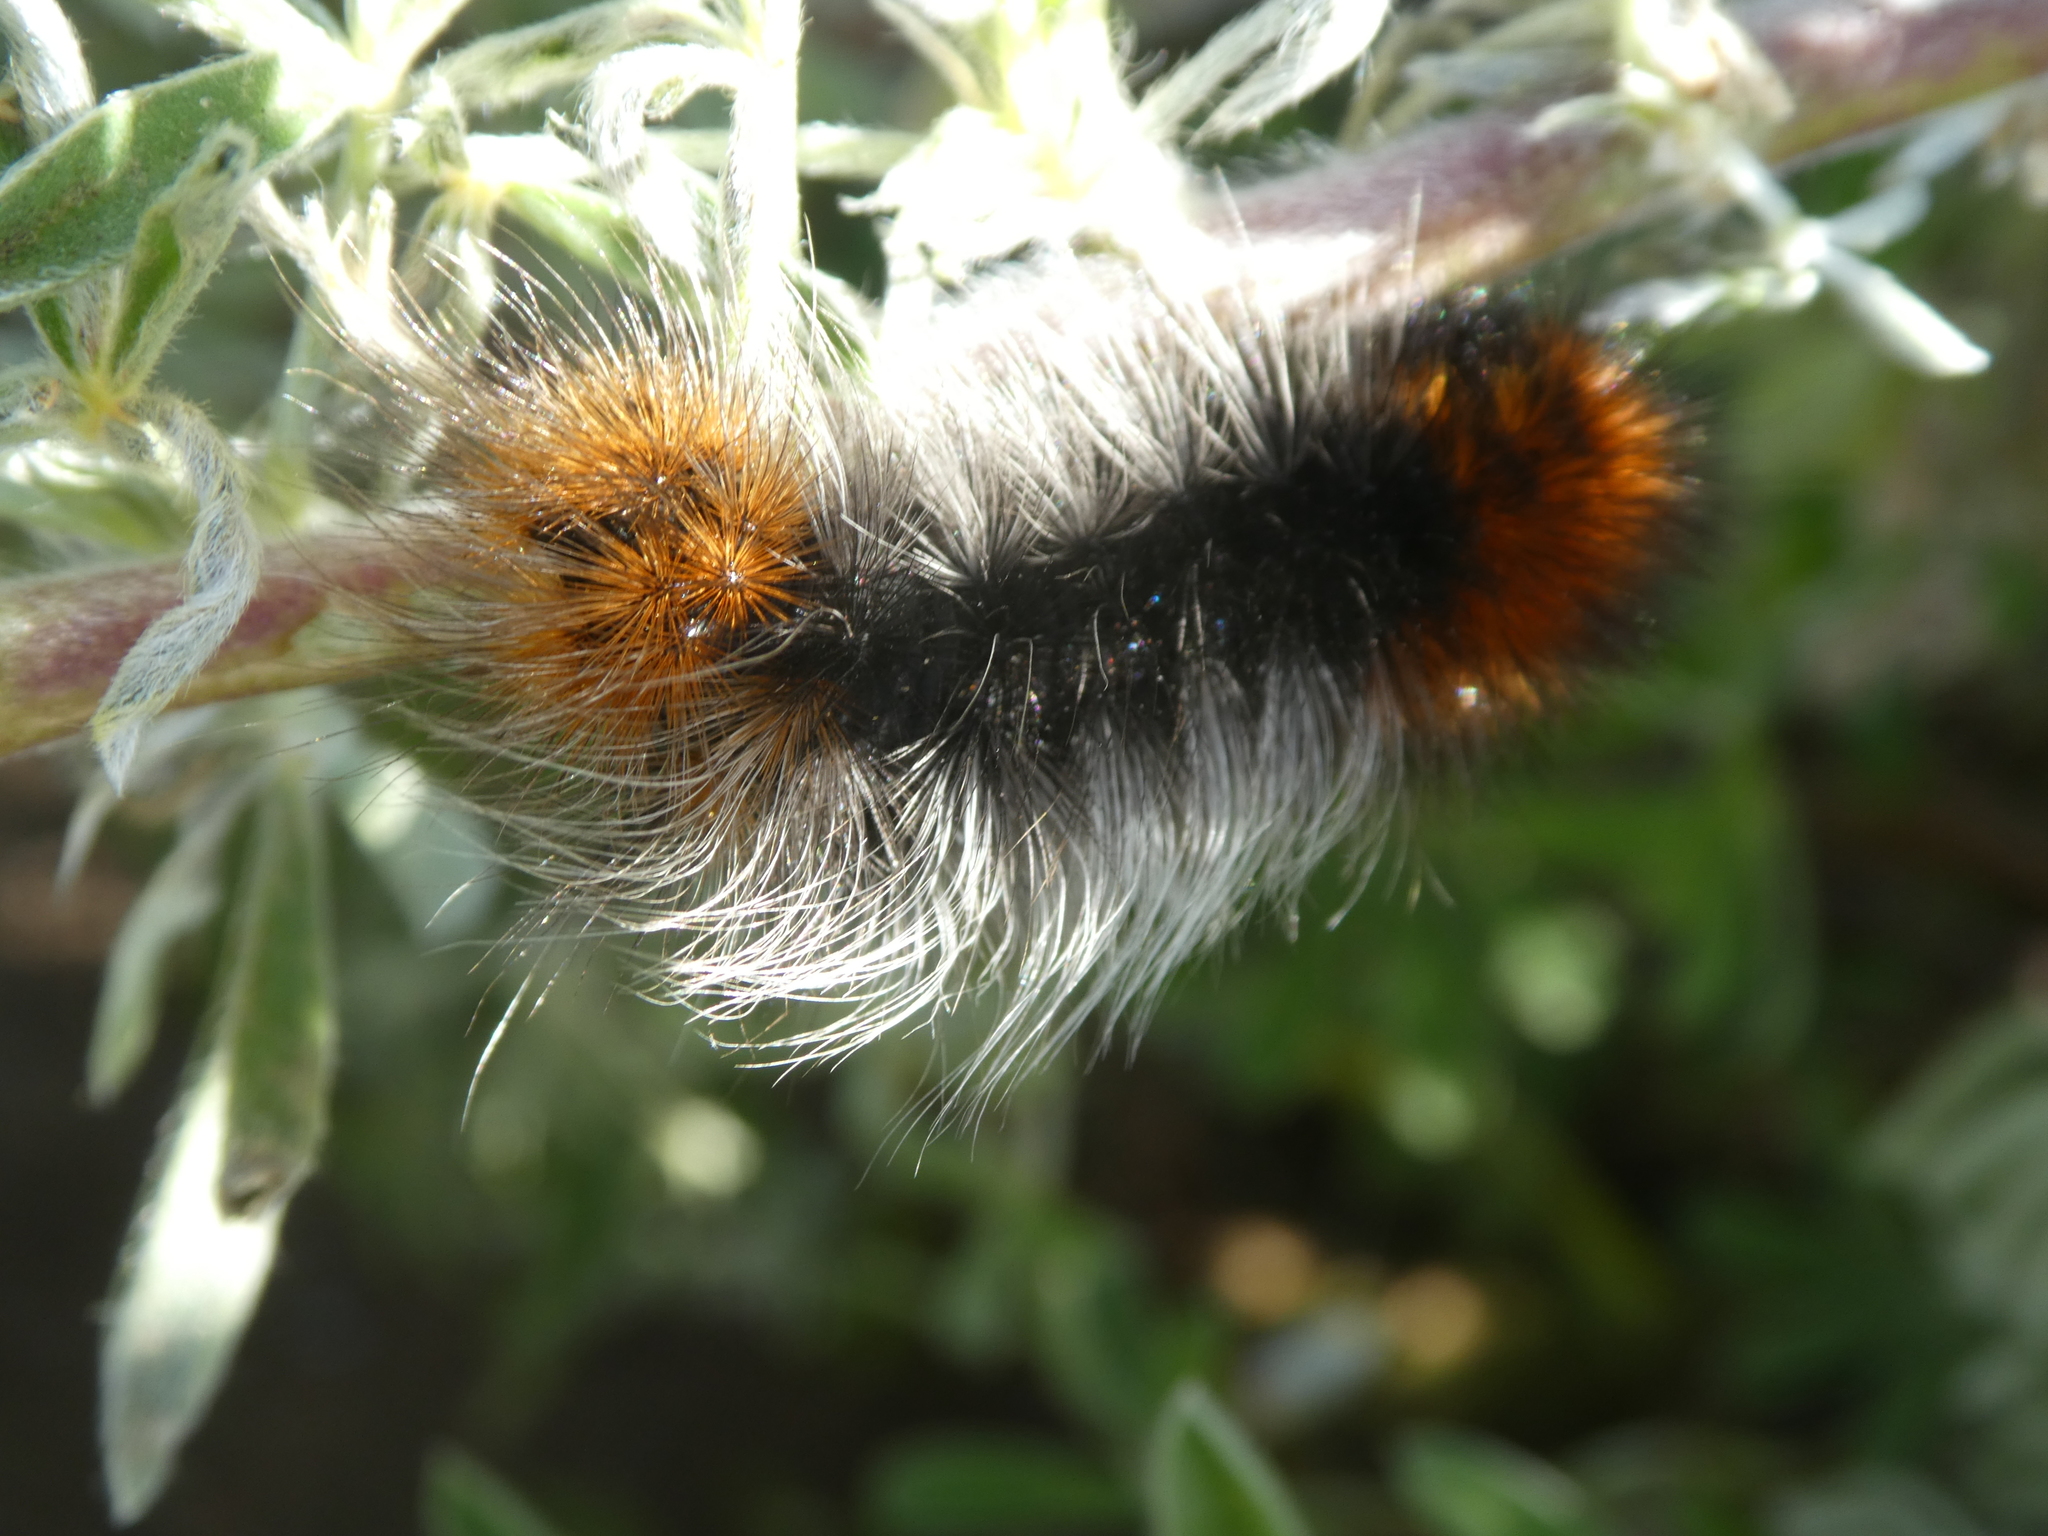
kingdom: Animalia
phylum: Arthropoda
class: Insecta
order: Lepidoptera
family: Erebidae
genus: Arctia
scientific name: Arctia tigrina
